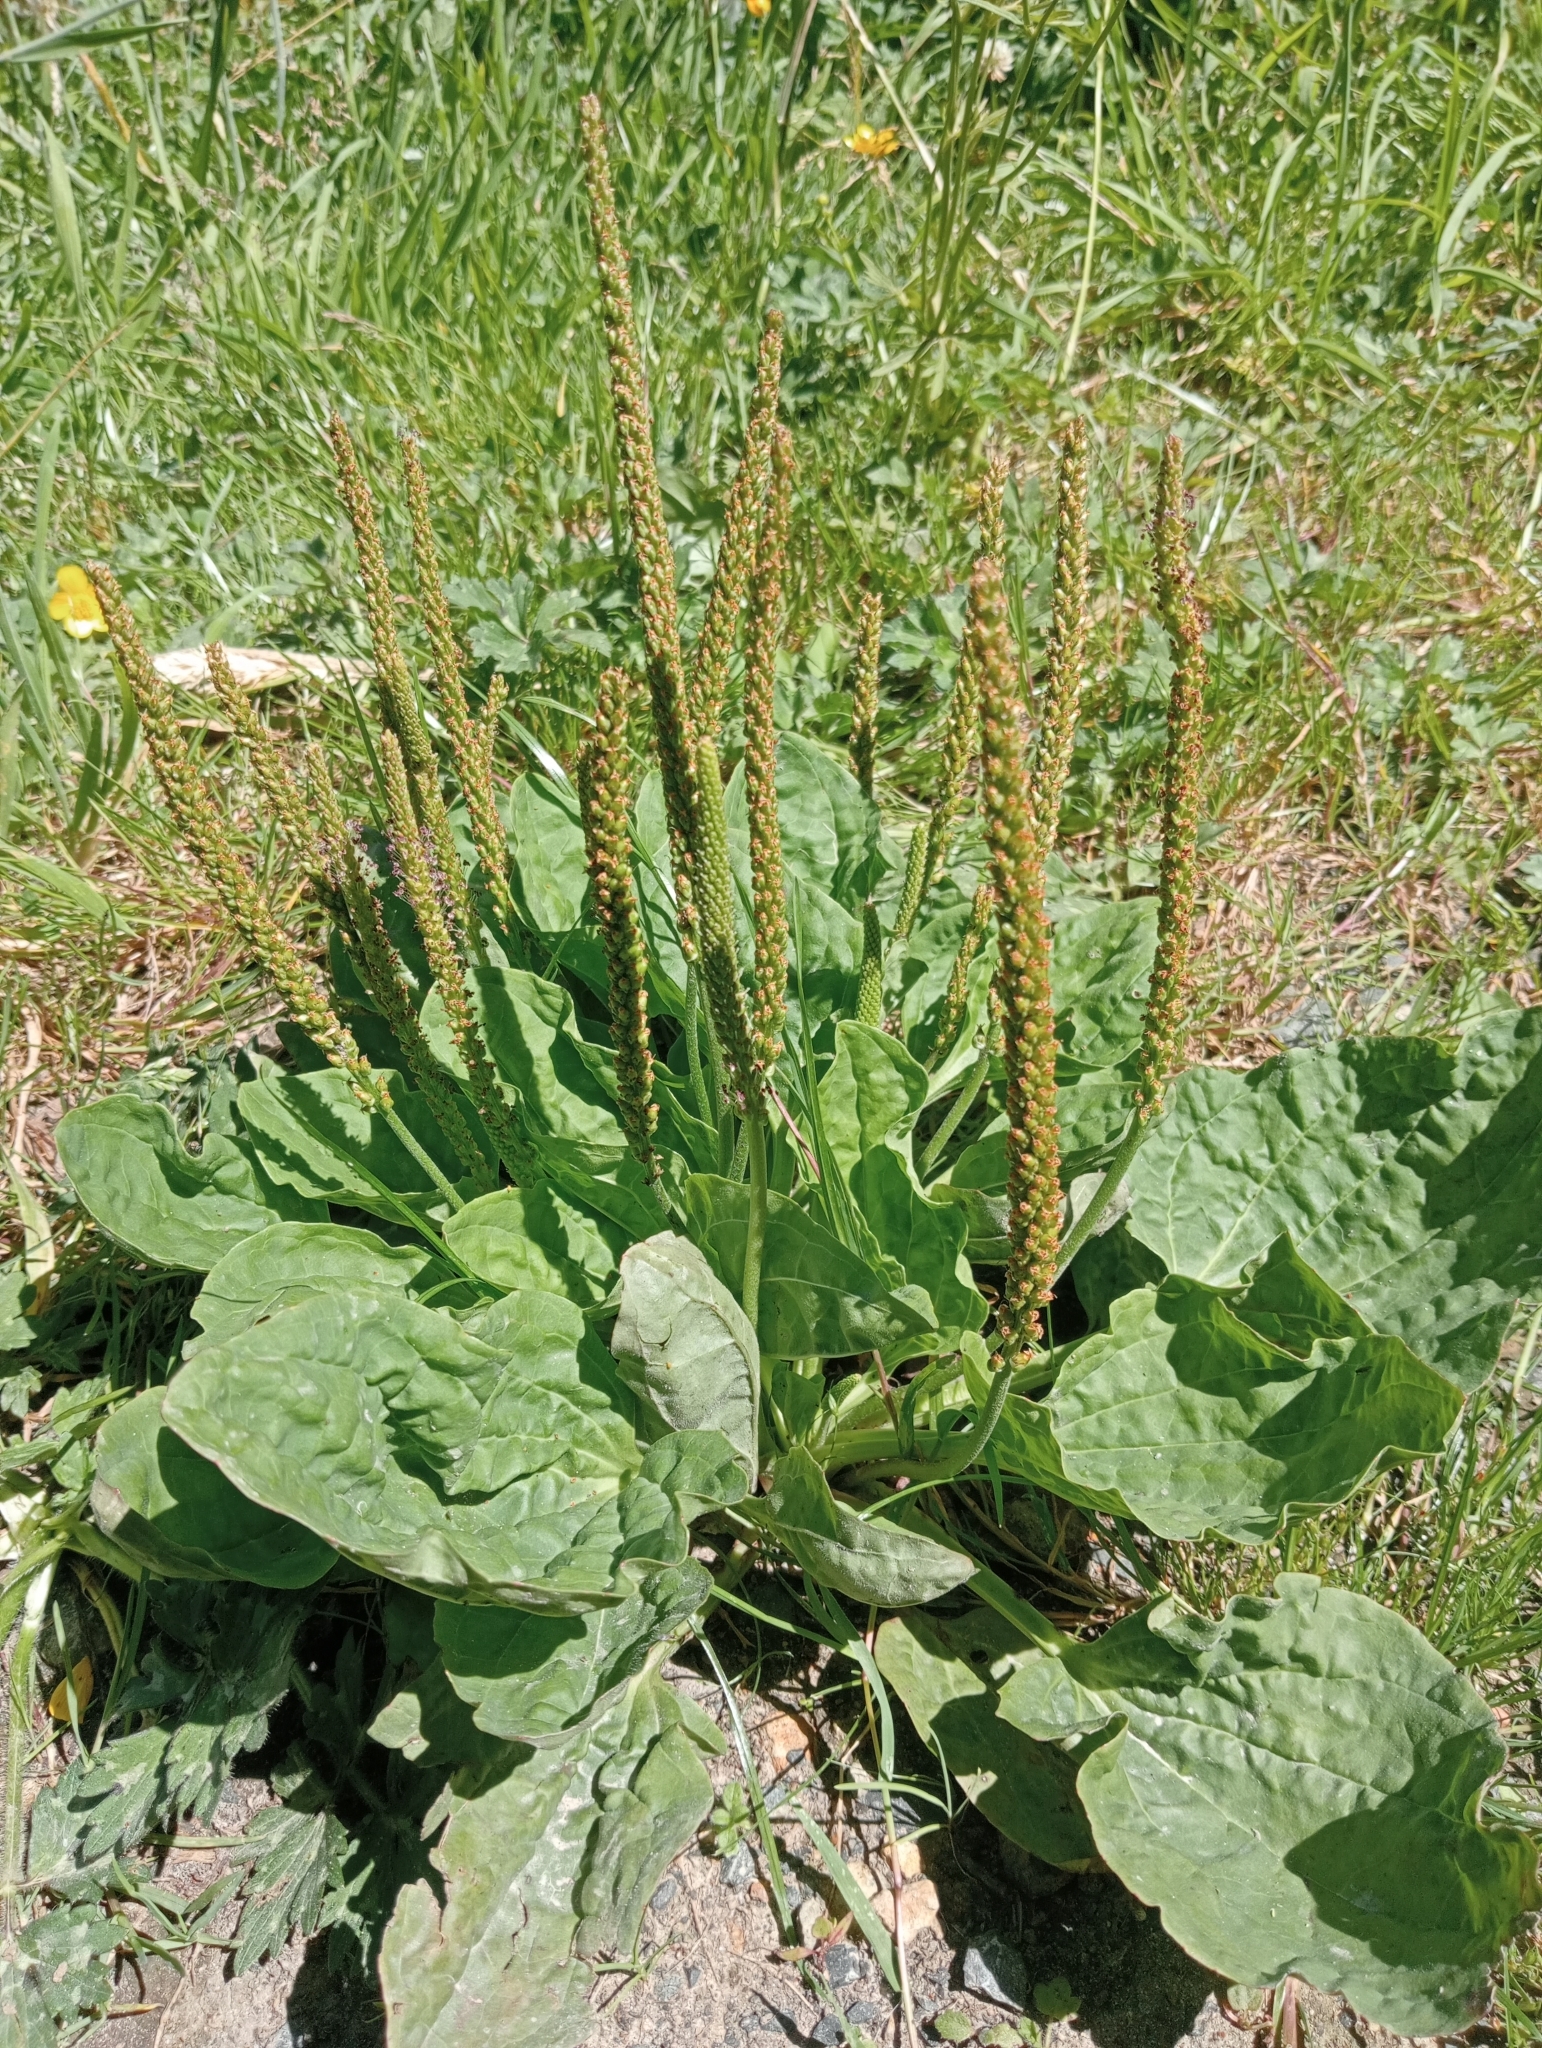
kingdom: Plantae
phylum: Tracheophyta
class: Magnoliopsida
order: Lamiales
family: Plantaginaceae
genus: Plantago
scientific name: Plantago major
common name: Common plantain
